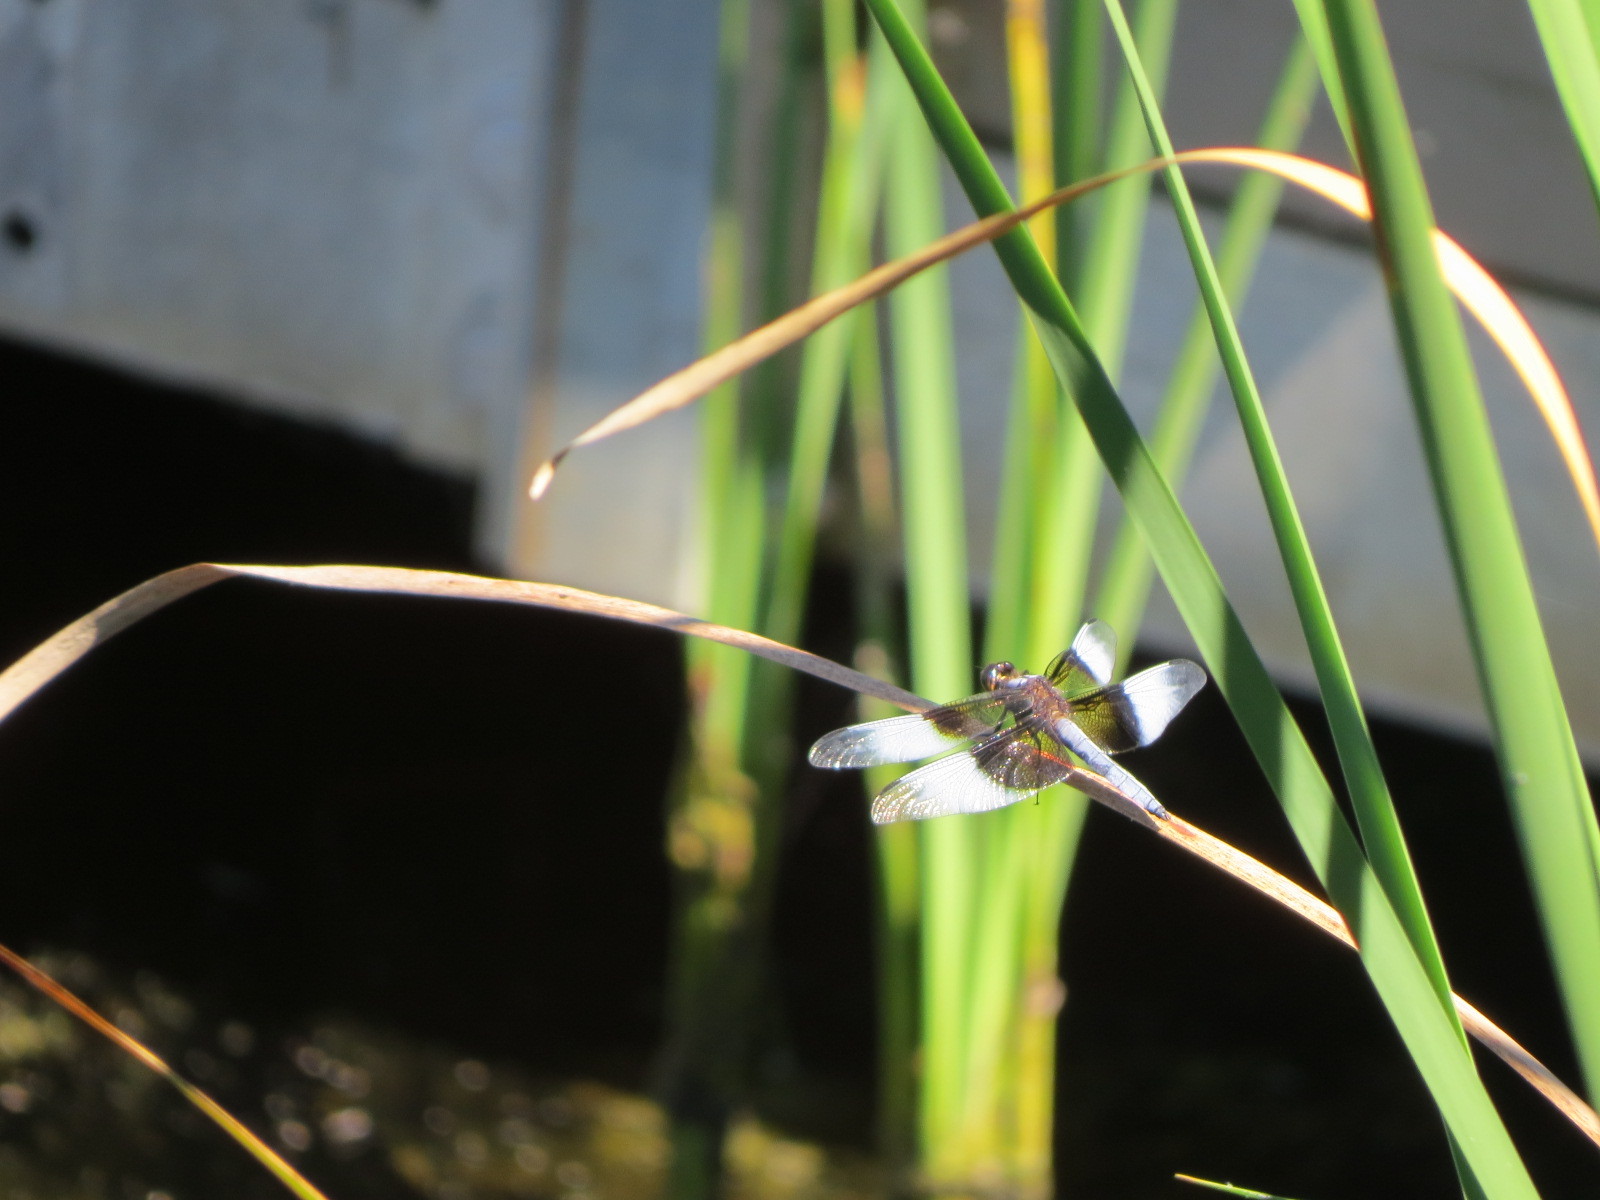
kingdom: Animalia
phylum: Arthropoda
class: Insecta
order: Odonata
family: Libellulidae
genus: Libellula
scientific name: Libellula luctuosa
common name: Widow skimmer
